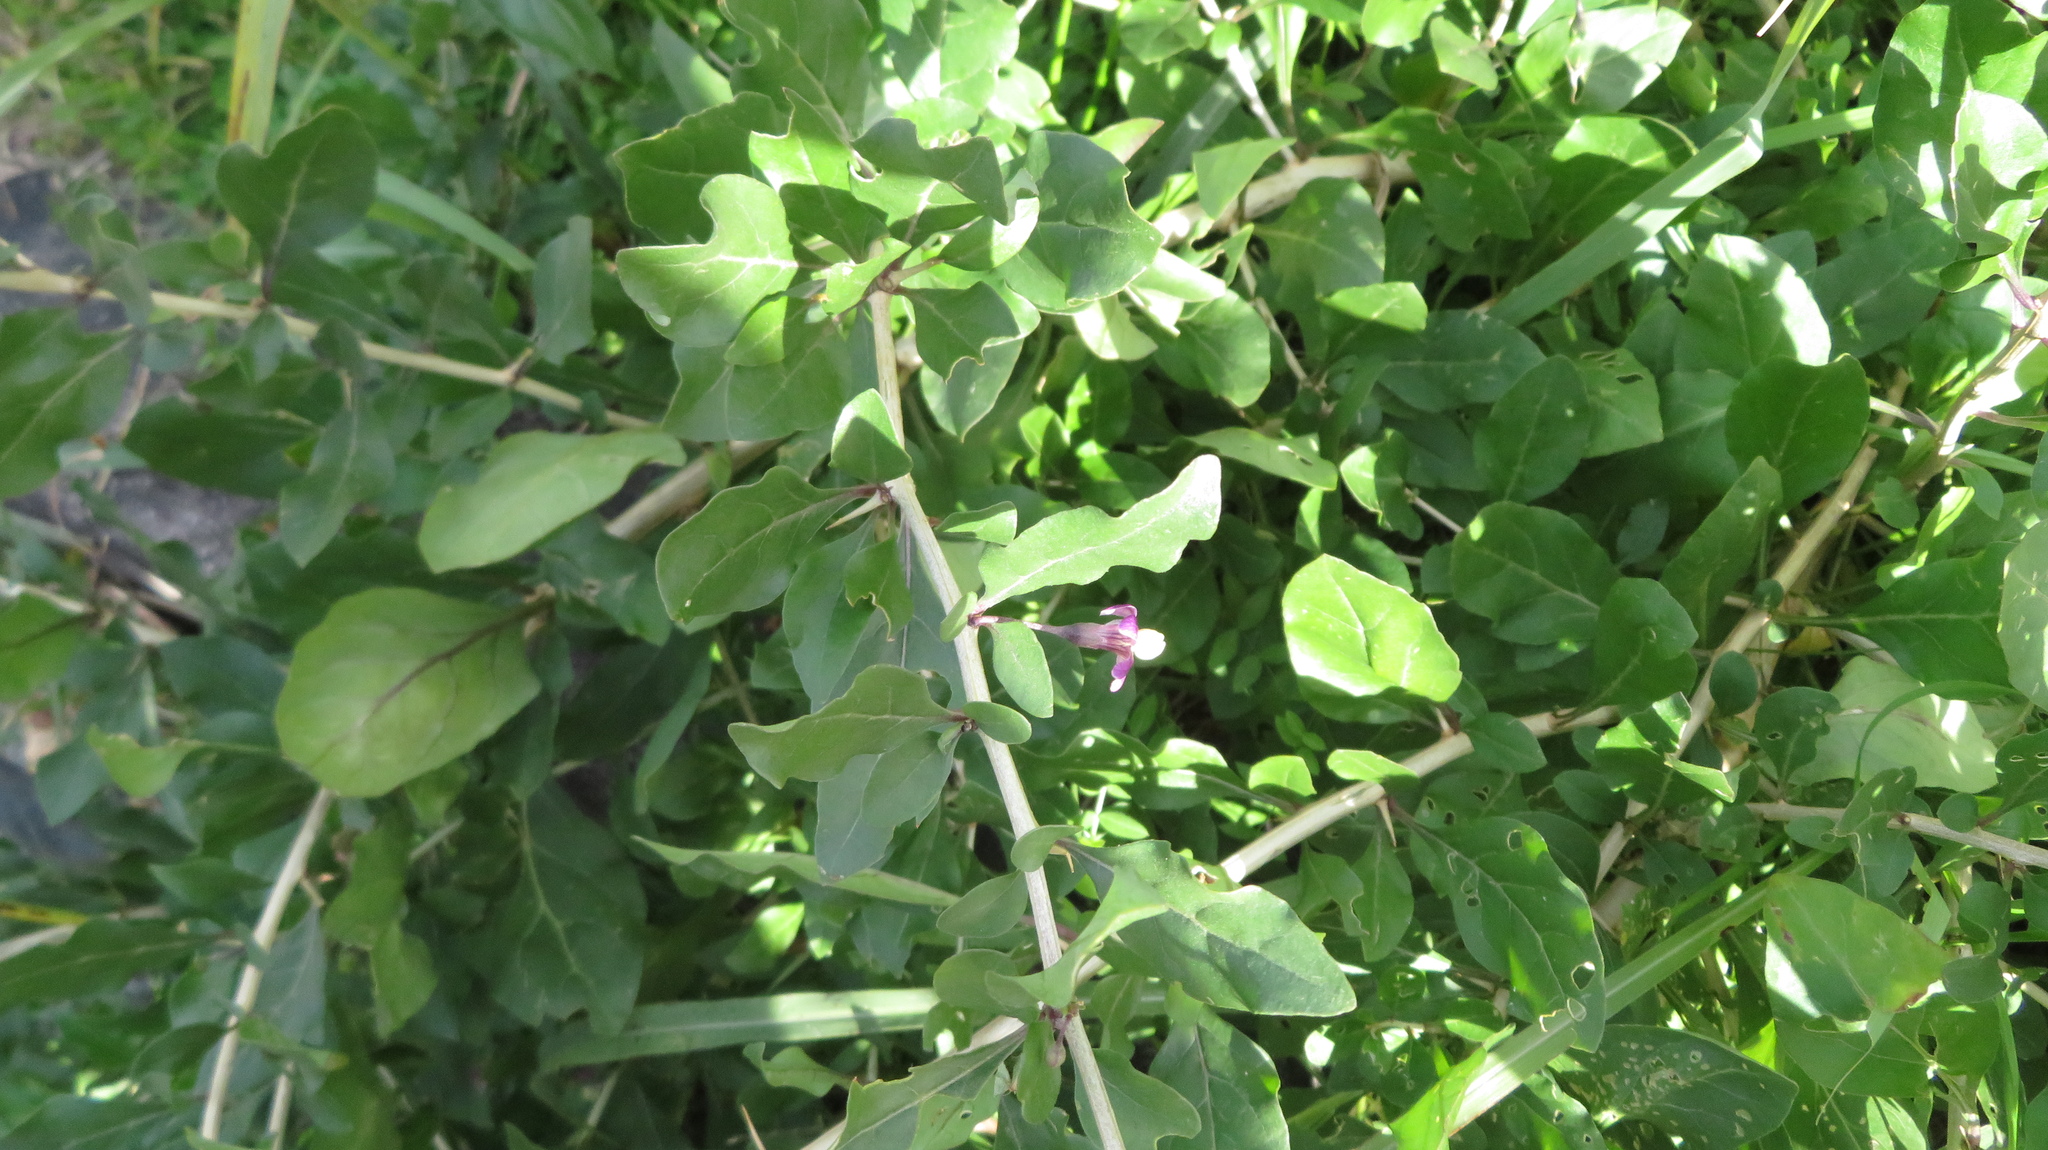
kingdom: Plantae
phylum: Tracheophyta
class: Magnoliopsida
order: Solanales
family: Solanaceae
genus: Lycium
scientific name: Lycium chinense
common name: Chinese teaplant
